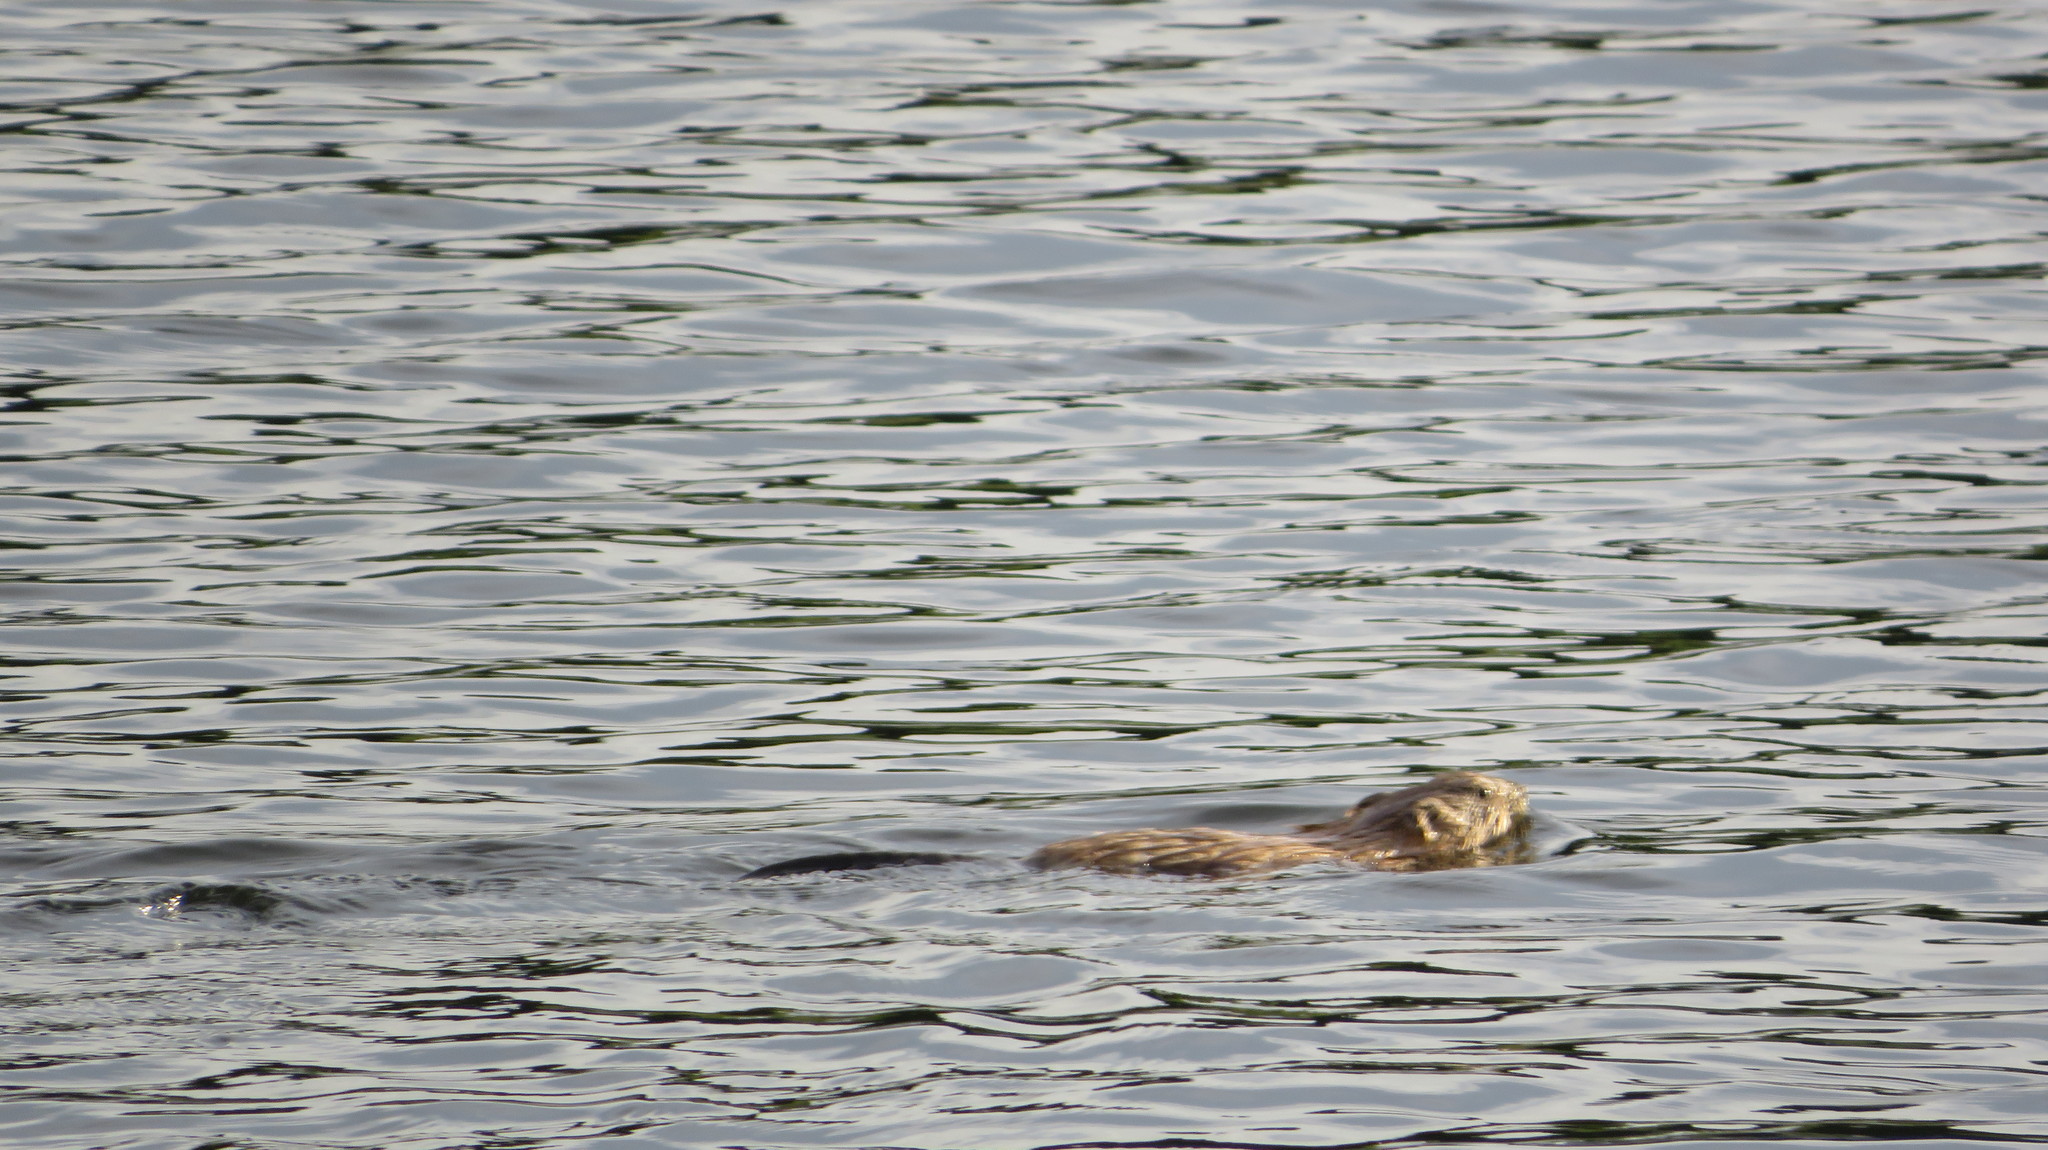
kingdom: Animalia
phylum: Chordata
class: Mammalia
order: Rodentia
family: Cricetidae
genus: Ondatra
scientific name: Ondatra zibethicus
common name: Muskrat
